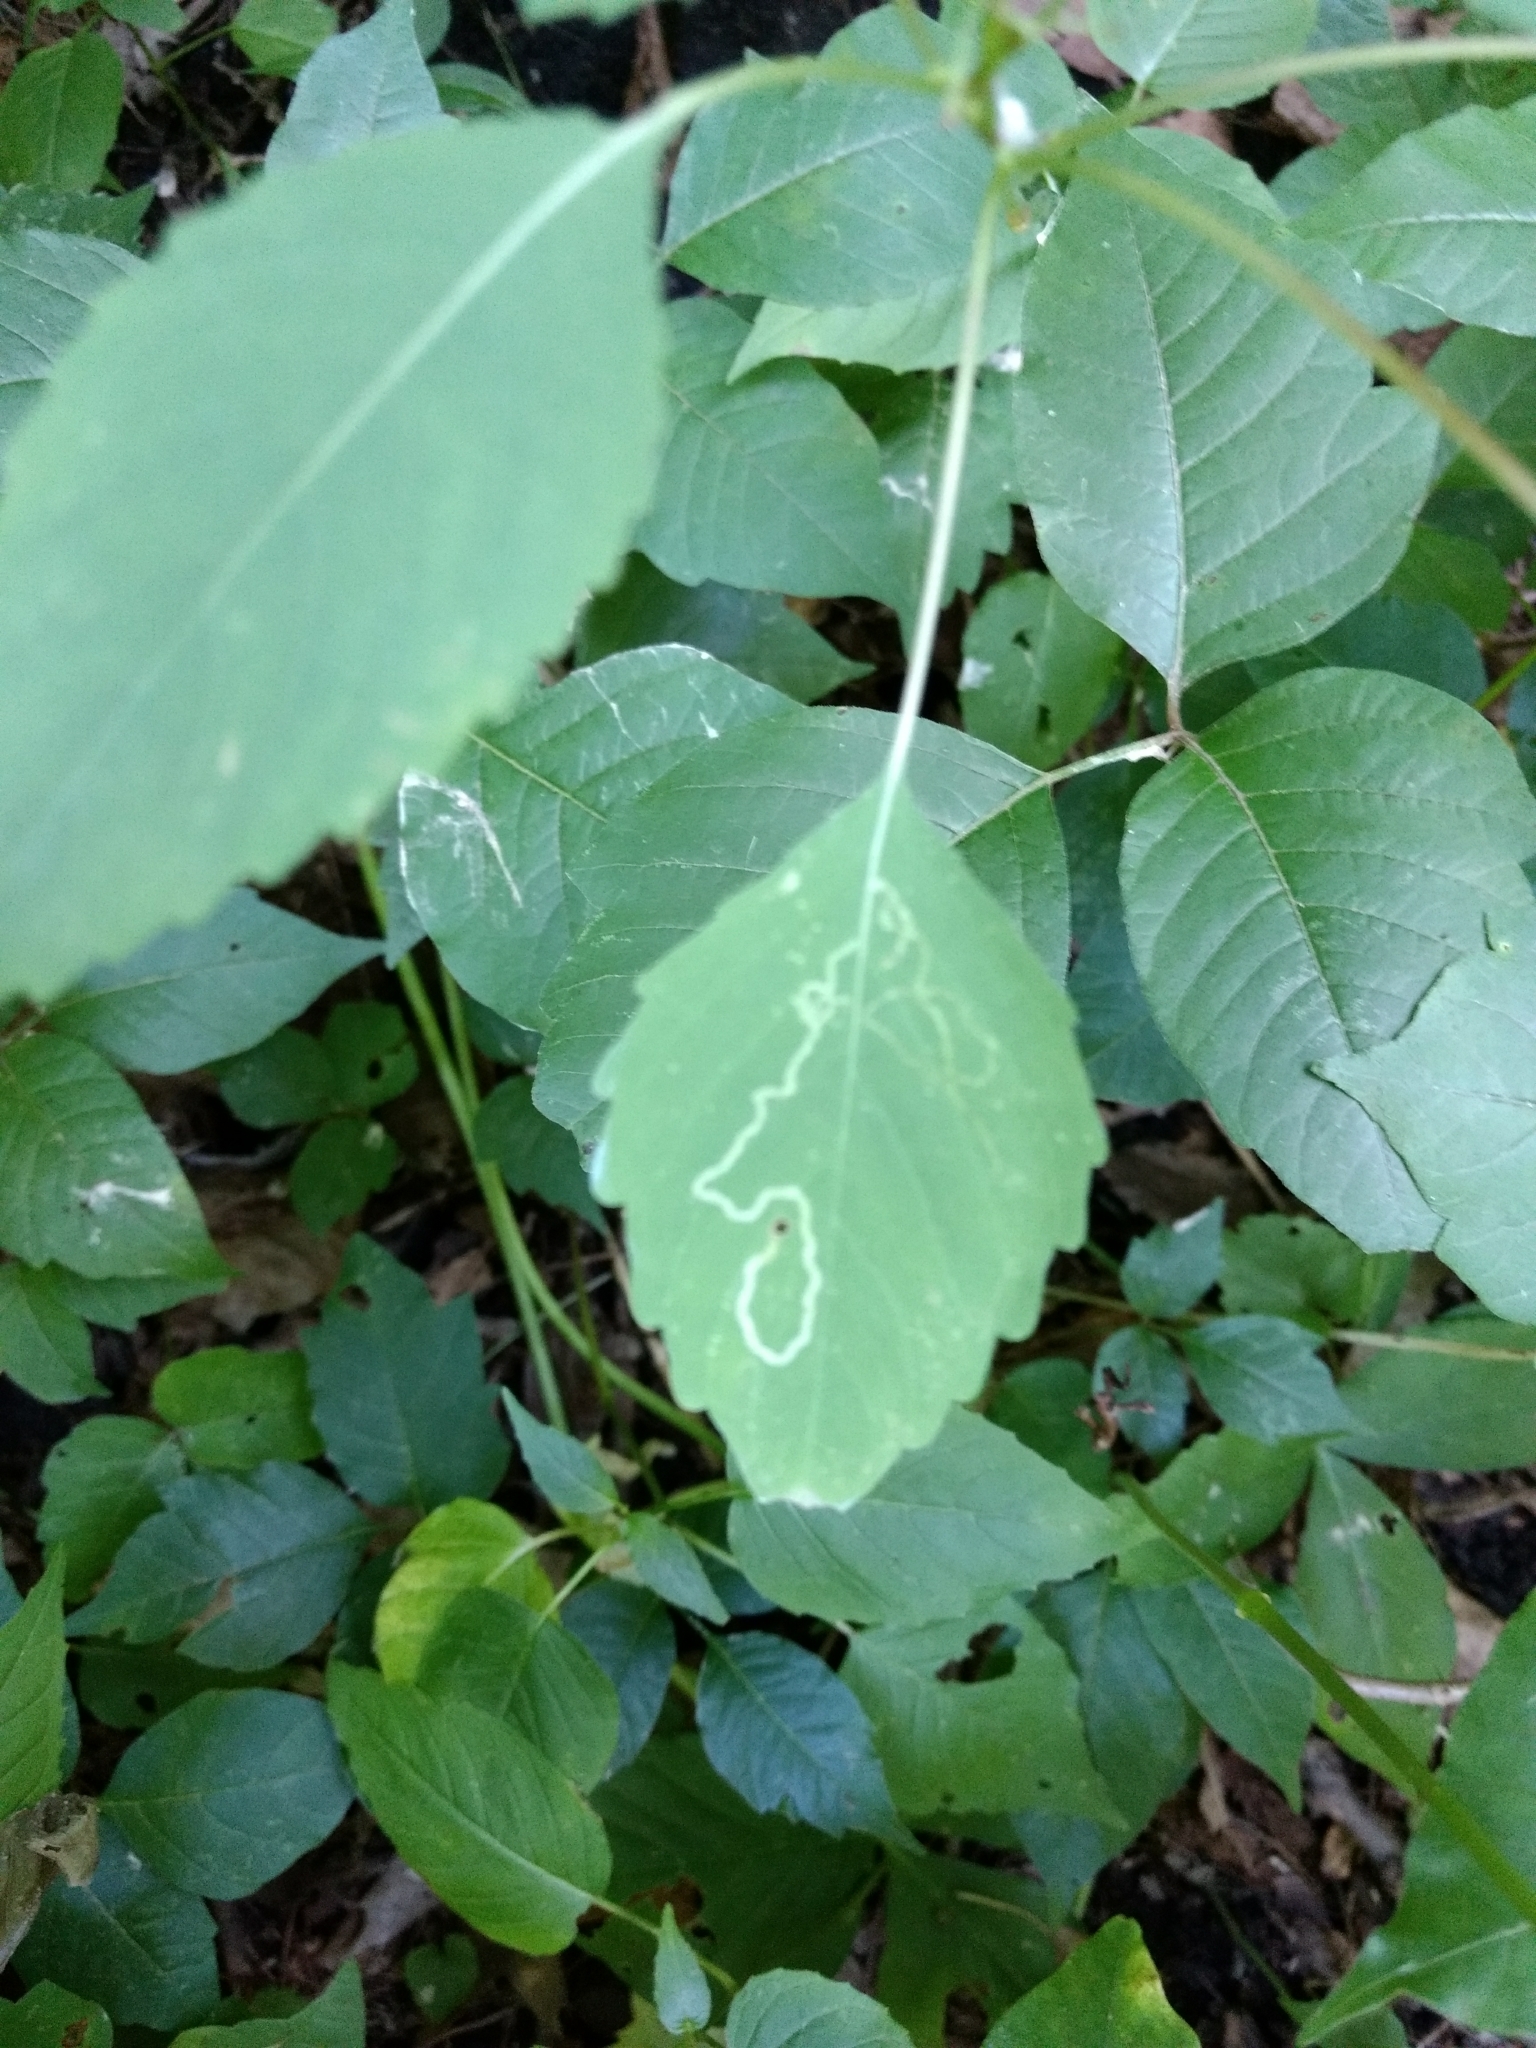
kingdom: Animalia
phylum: Arthropoda
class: Insecta
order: Diptera
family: Agromyzidae
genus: Phytoliriomyza
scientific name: Phytoliriomyza melampyga
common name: Jewelweed leaf-miner fly
